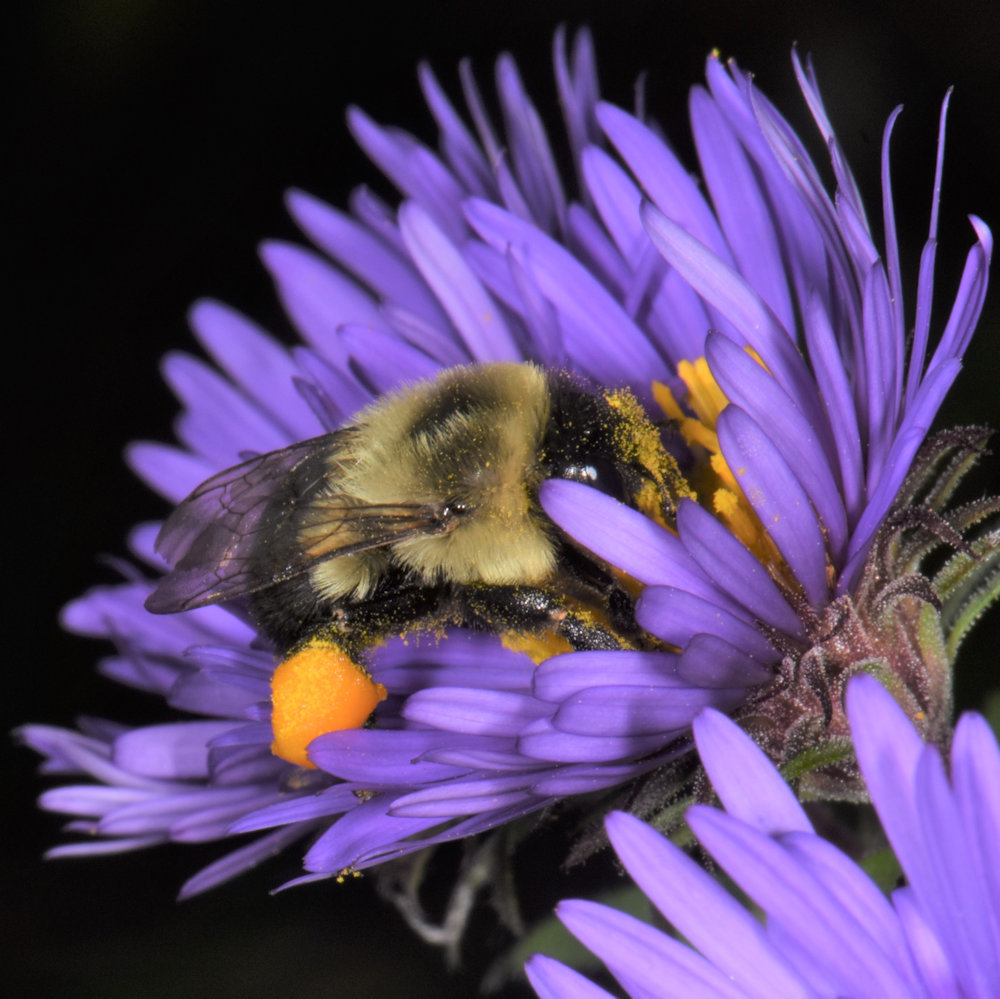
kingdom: Animalia
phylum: Arthropoda
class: Insecta
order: Hymenoptera
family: Apidae
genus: Bombus
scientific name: Bombus impatiens
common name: Common eastern bumble bee
